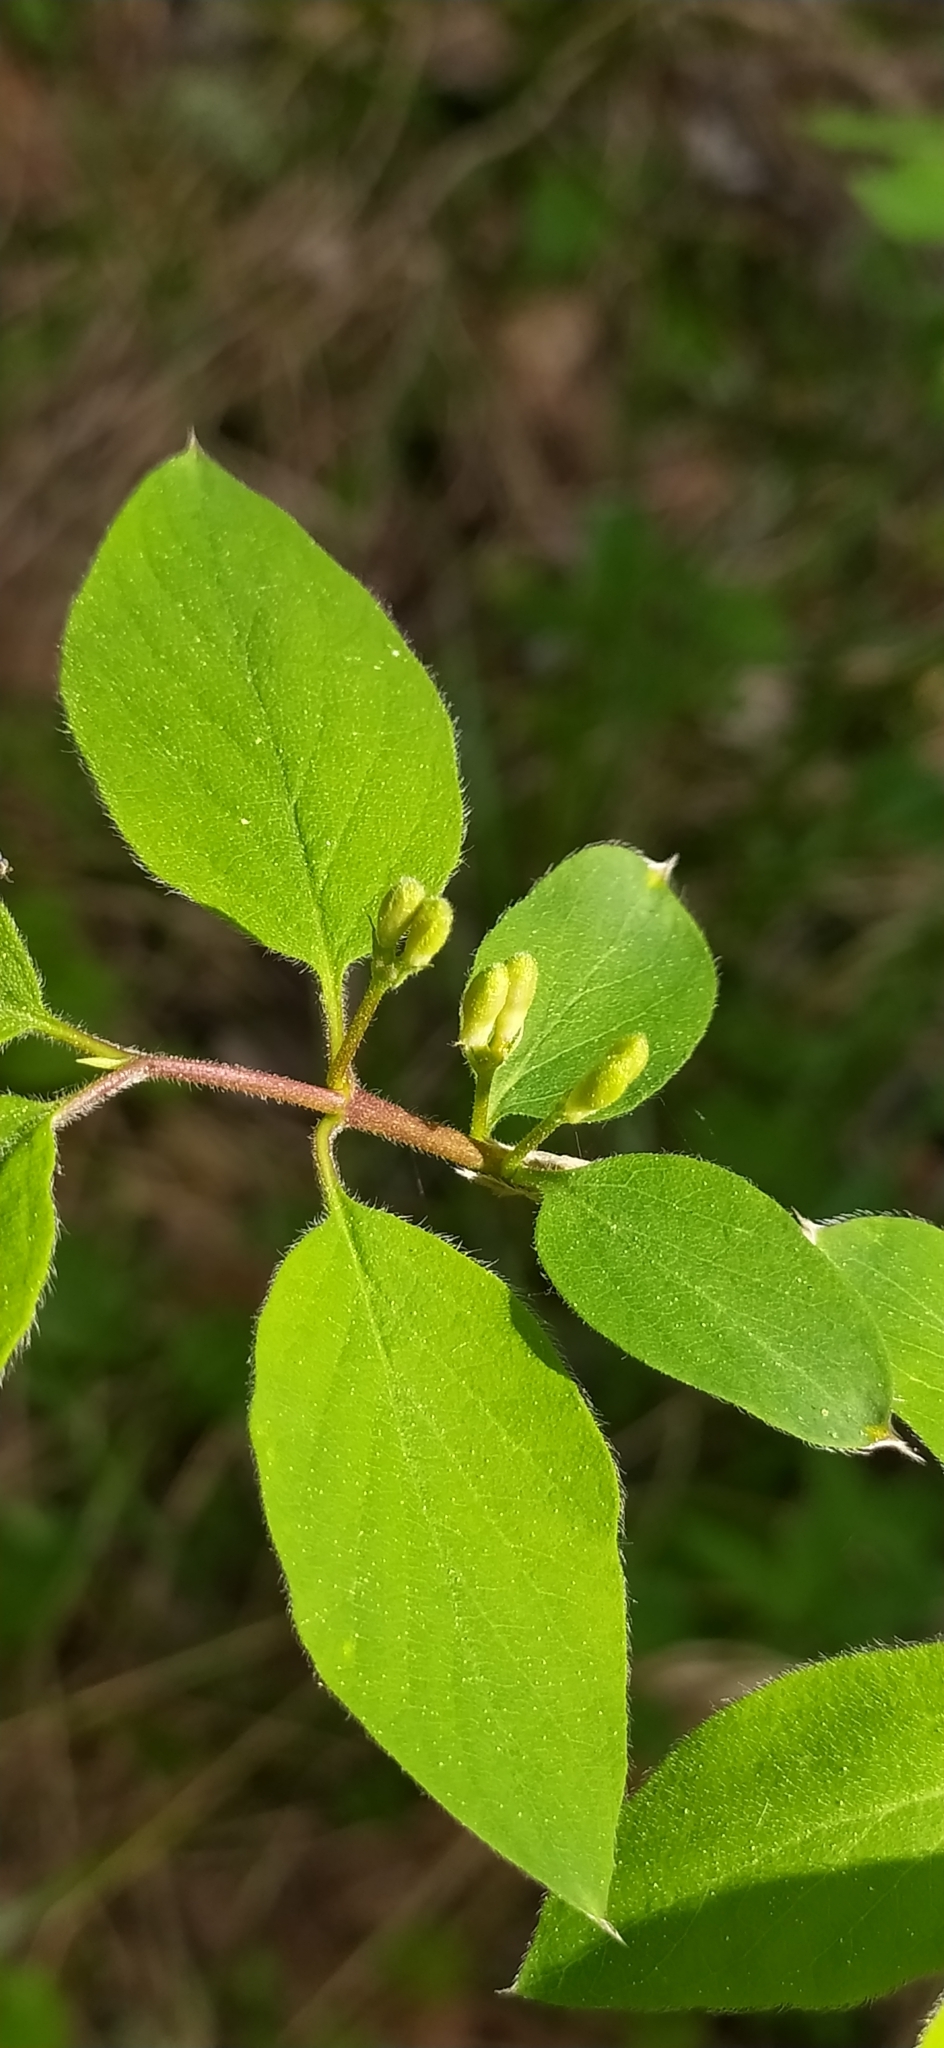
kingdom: Plantae
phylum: Tracheophyta
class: Magnoliopsida
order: Dipsacales
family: Caprifoliaceae
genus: Lonicera
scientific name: Lonicera xylosteum
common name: Fly honeysuckle
